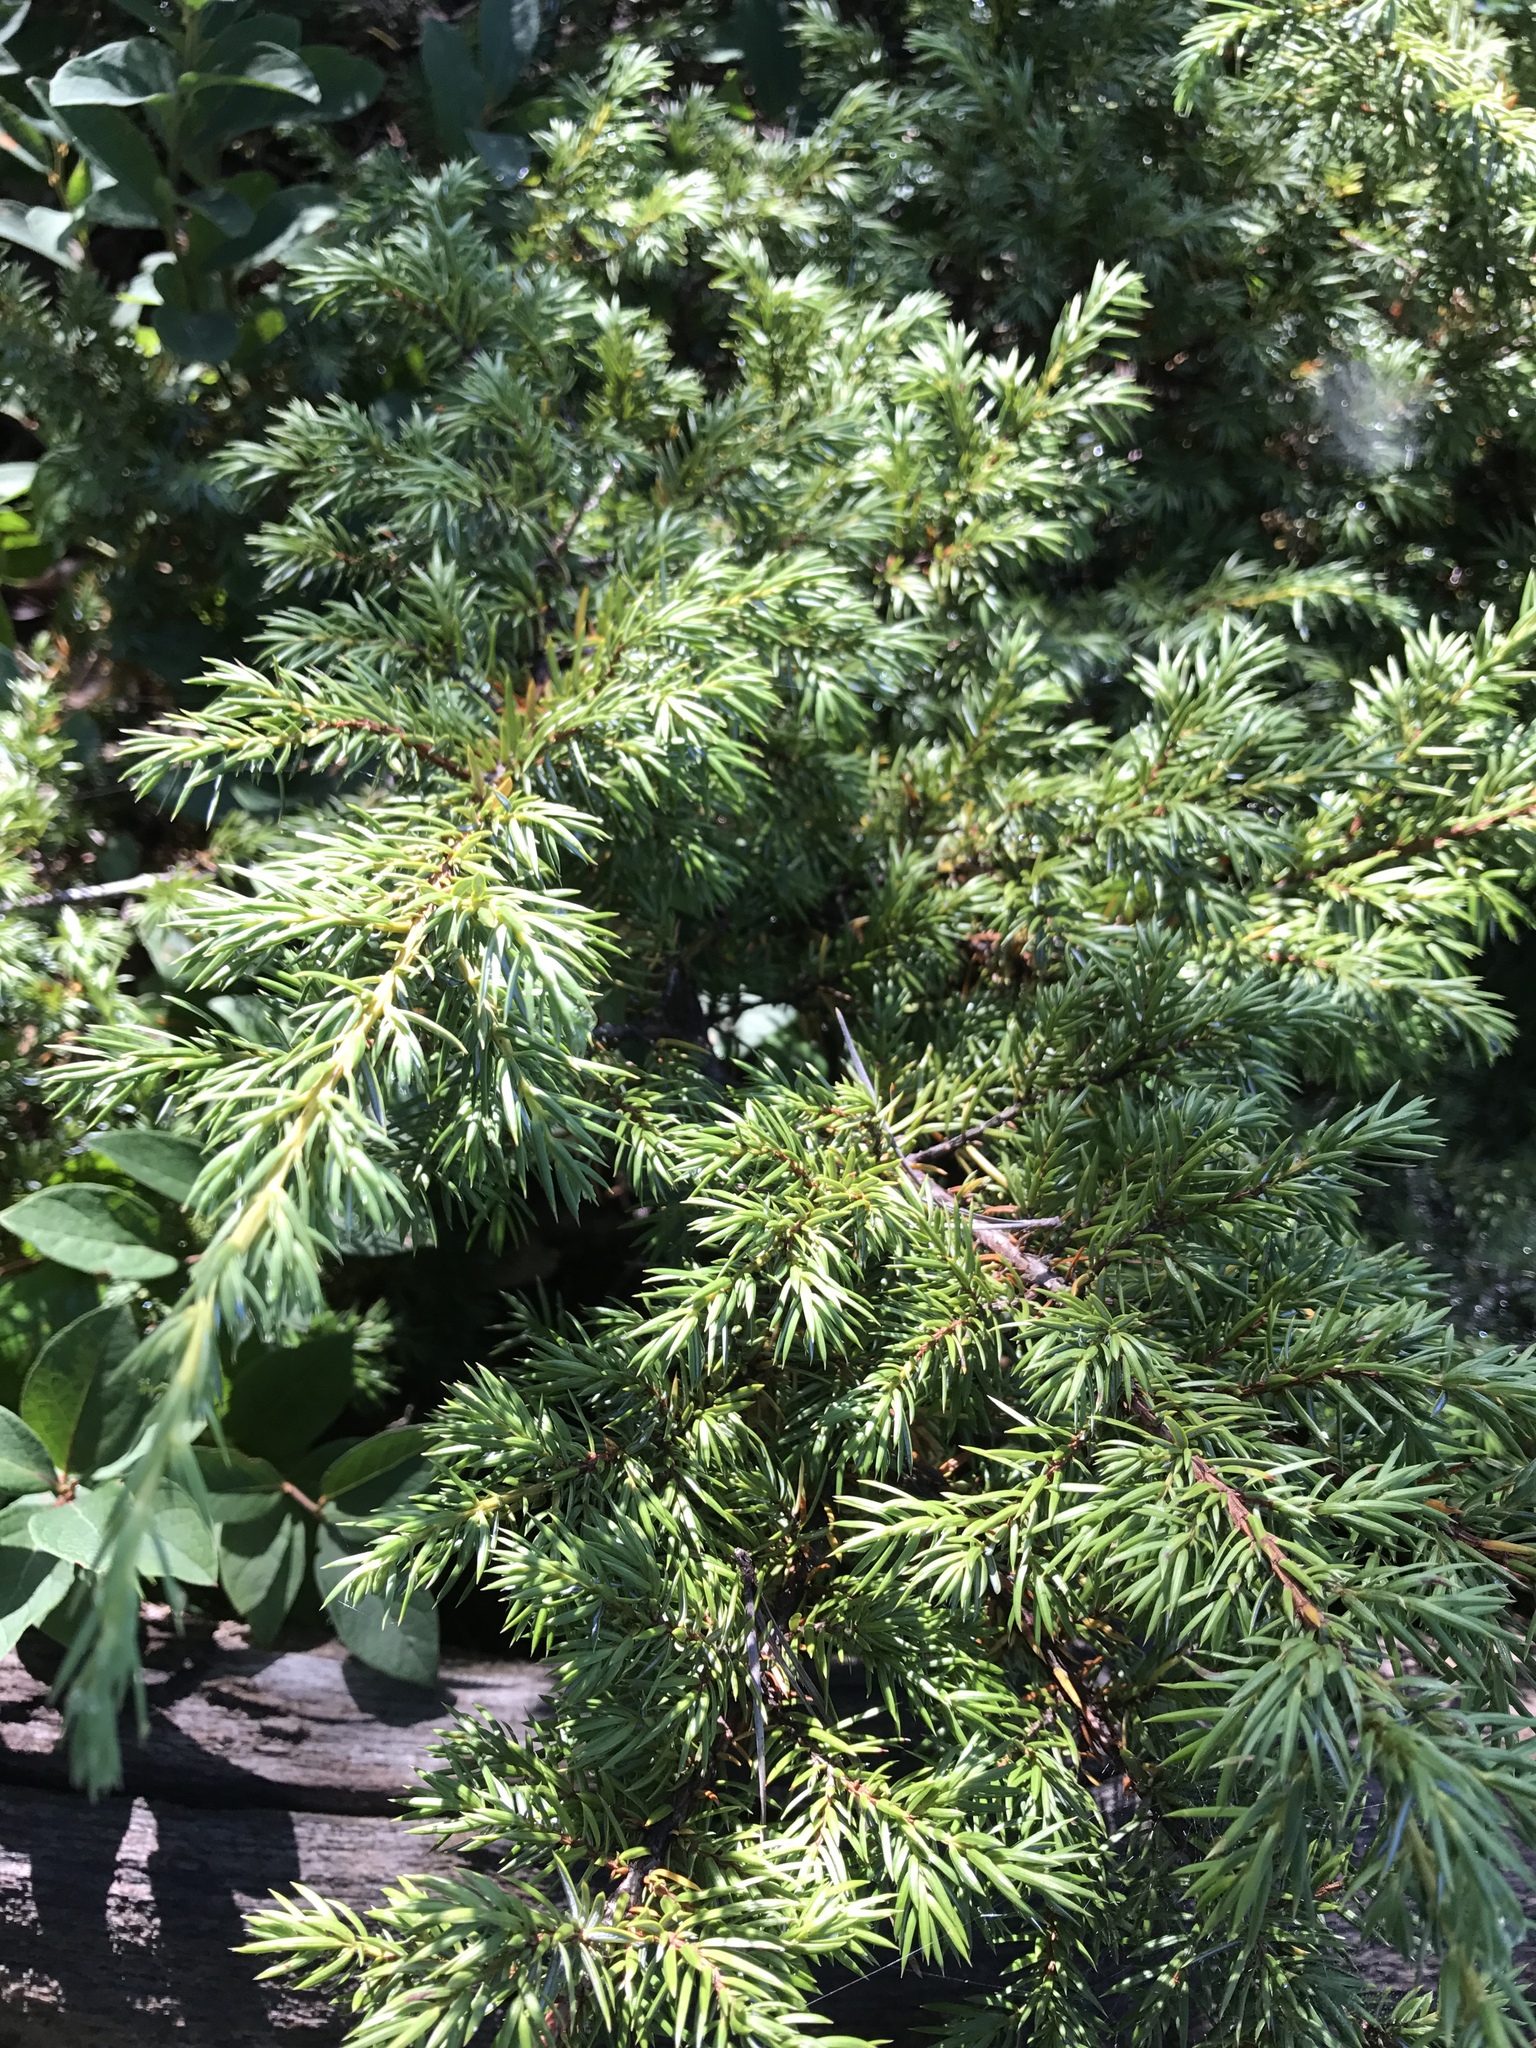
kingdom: Plantae
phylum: Tracheophyta
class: Pinopsida
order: Pinales
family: Cupressaceae
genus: Juniperus
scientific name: Juniperus communis
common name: Common juniper
